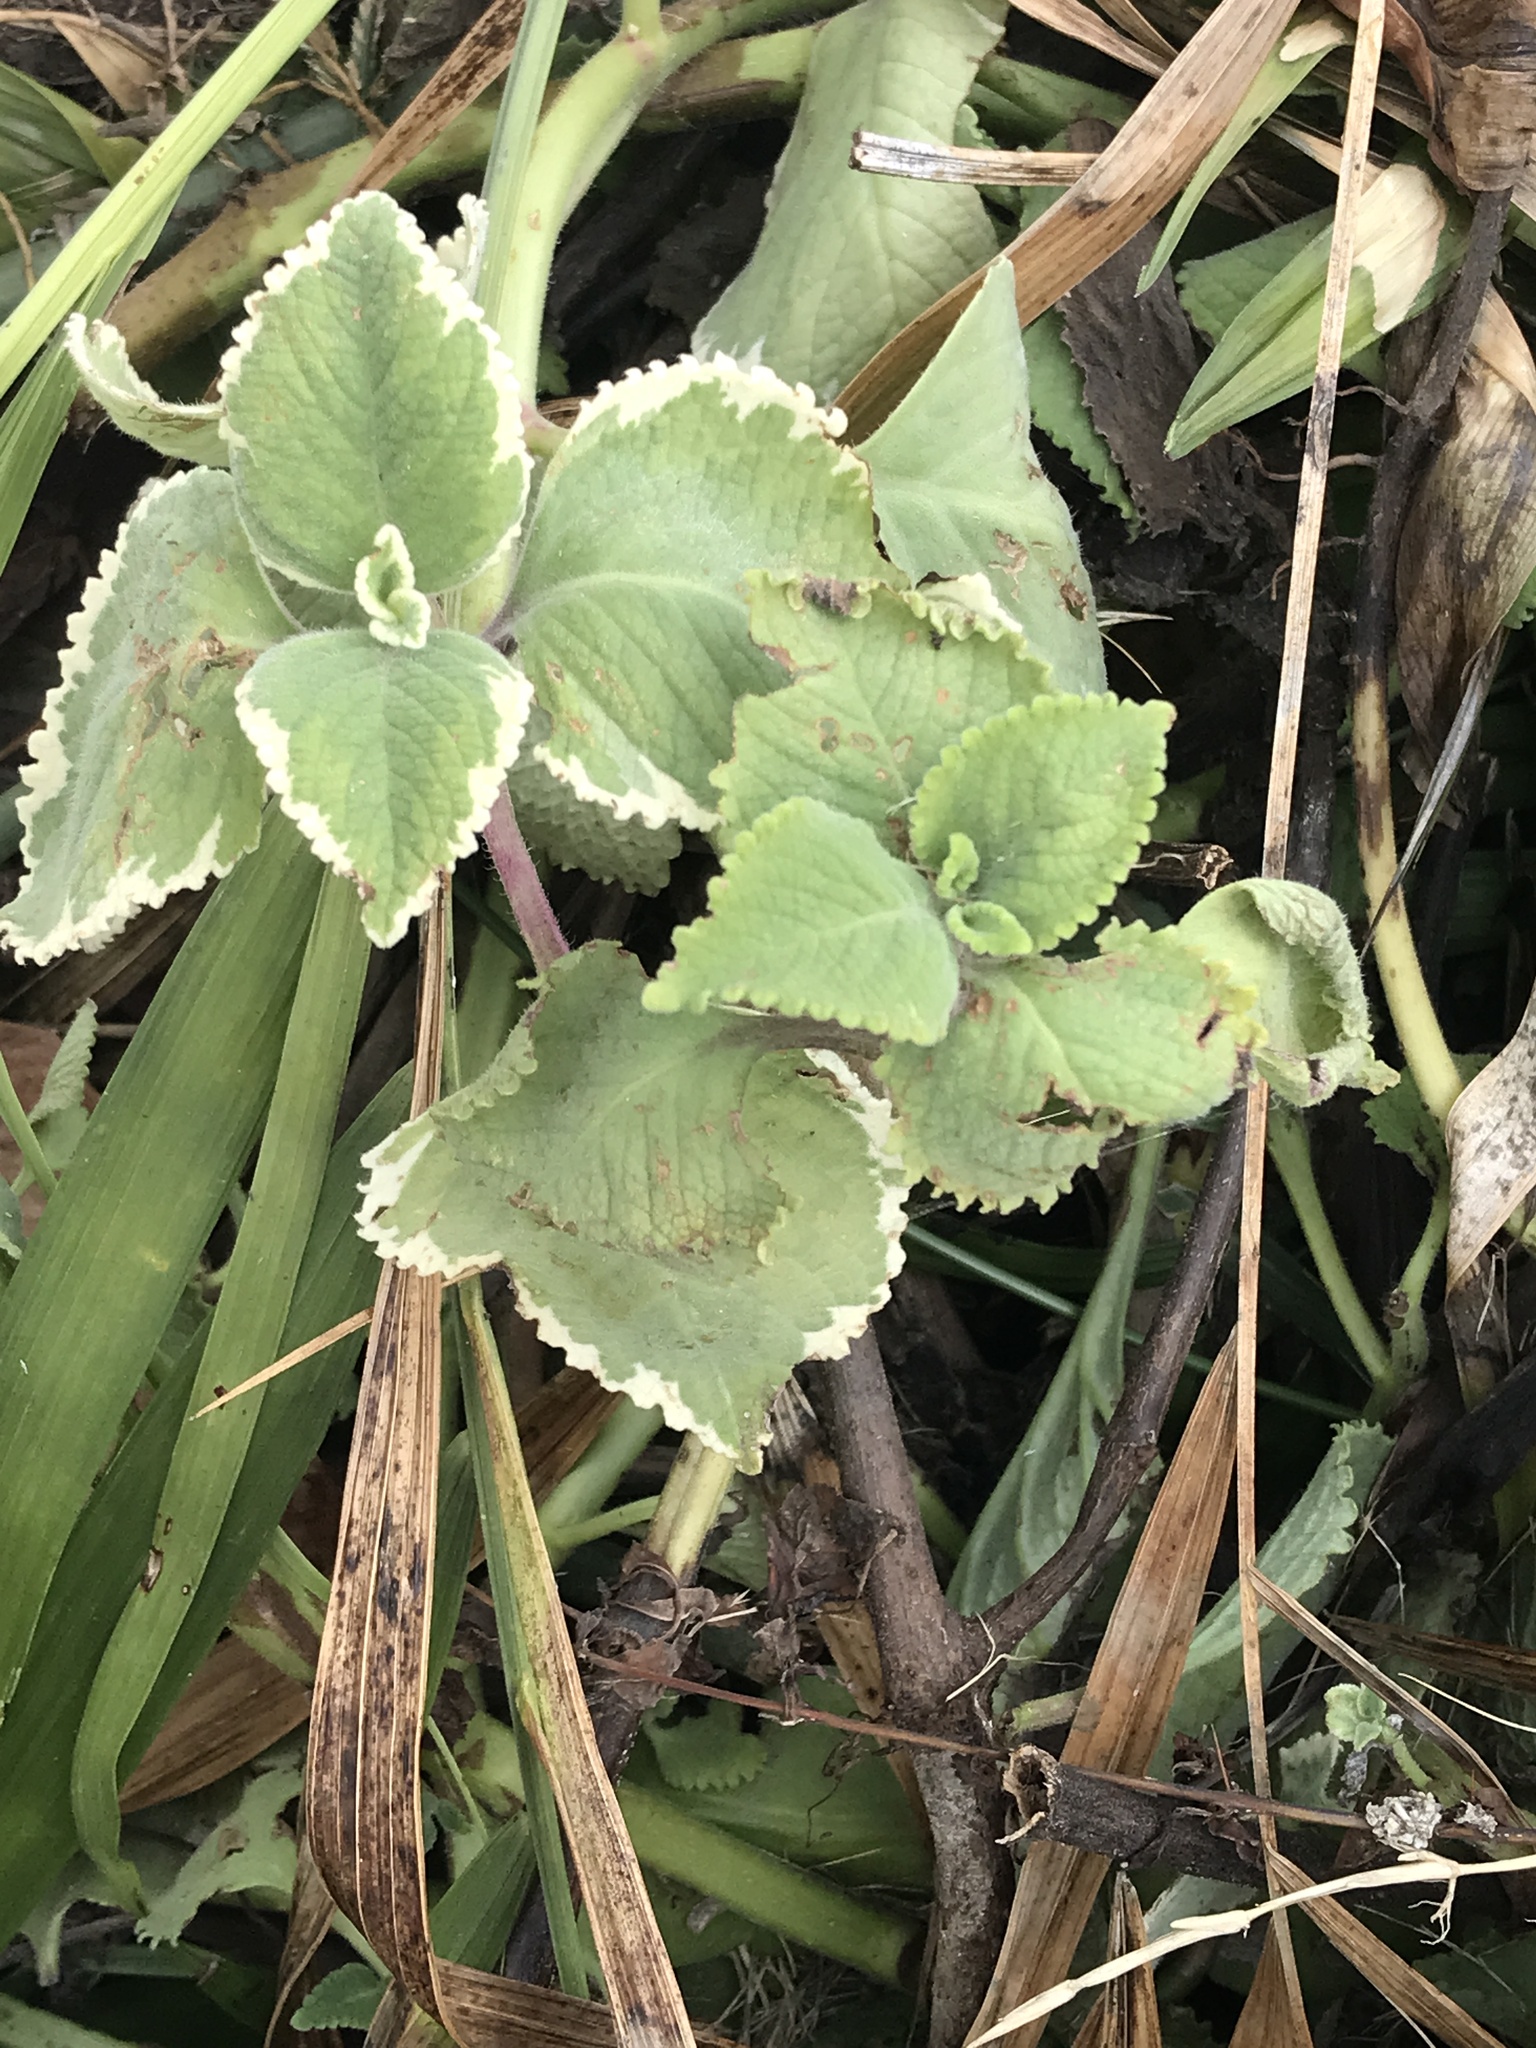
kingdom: Plantae
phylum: Tracheophyta
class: Magnoliopsida
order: Lamiales
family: Lamiaceae
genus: Coleus
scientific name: Coleus amboinicus
